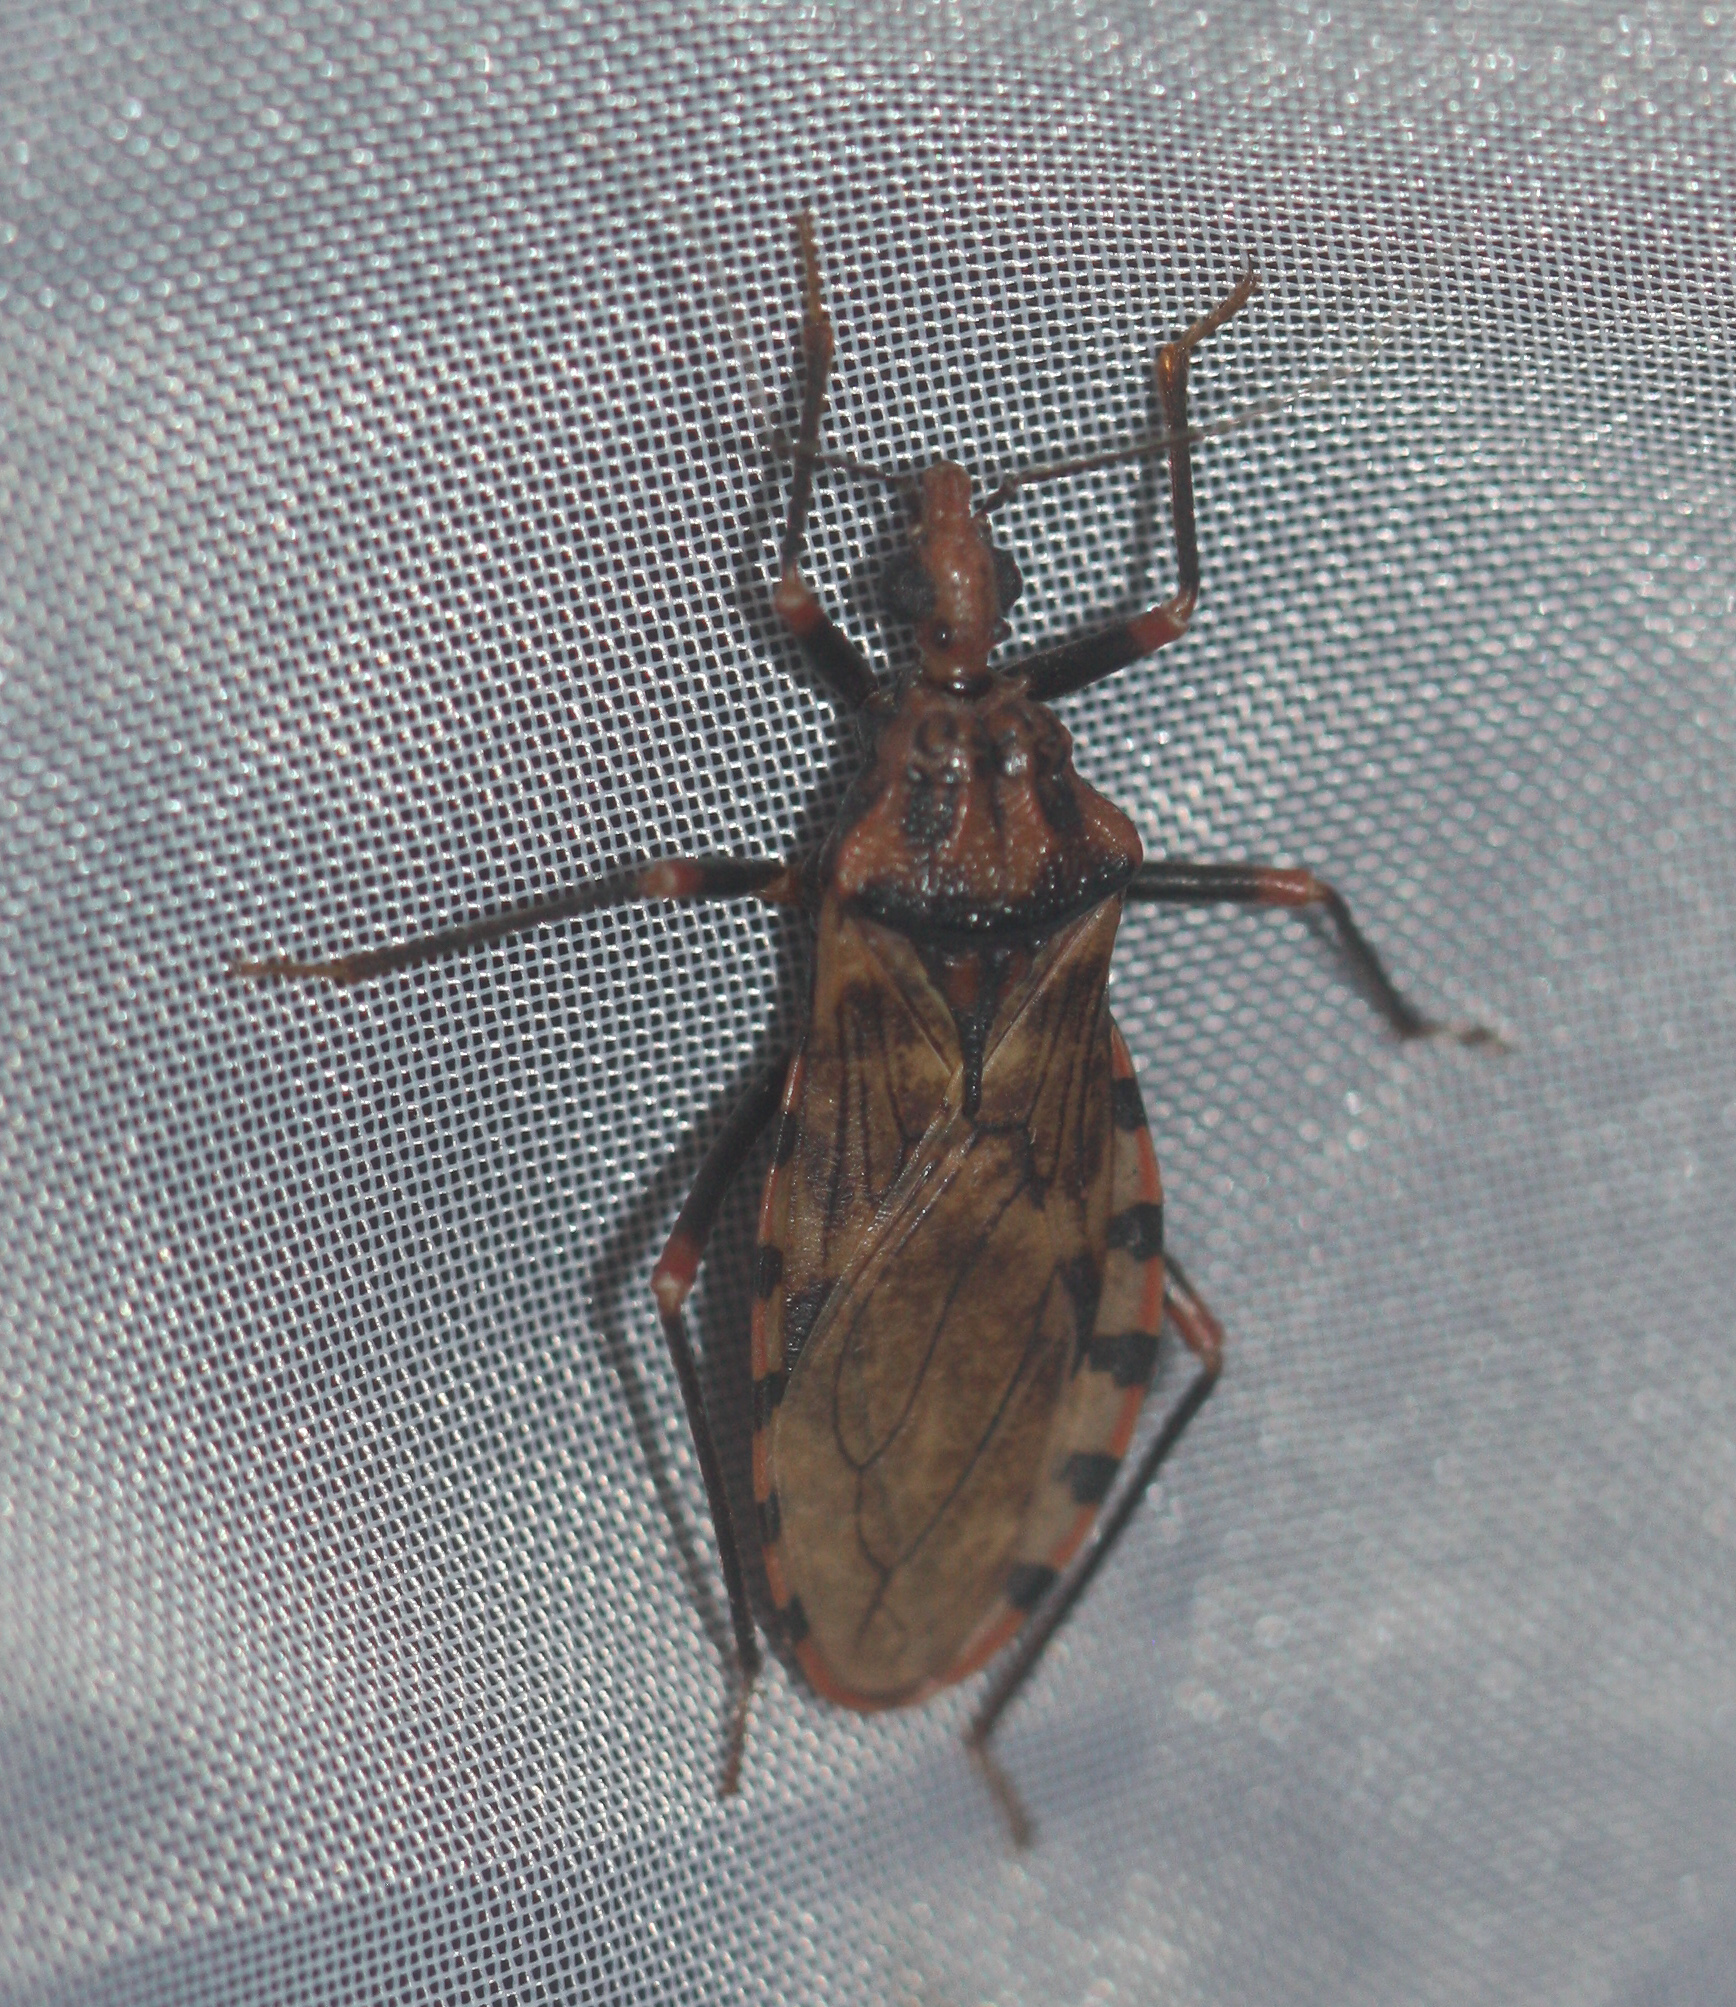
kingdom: Animalia
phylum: Arthropoda
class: Insecta
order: Hemiptera
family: Reduviidae
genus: Panstrongylus
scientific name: Panstrongylus geniculatus
